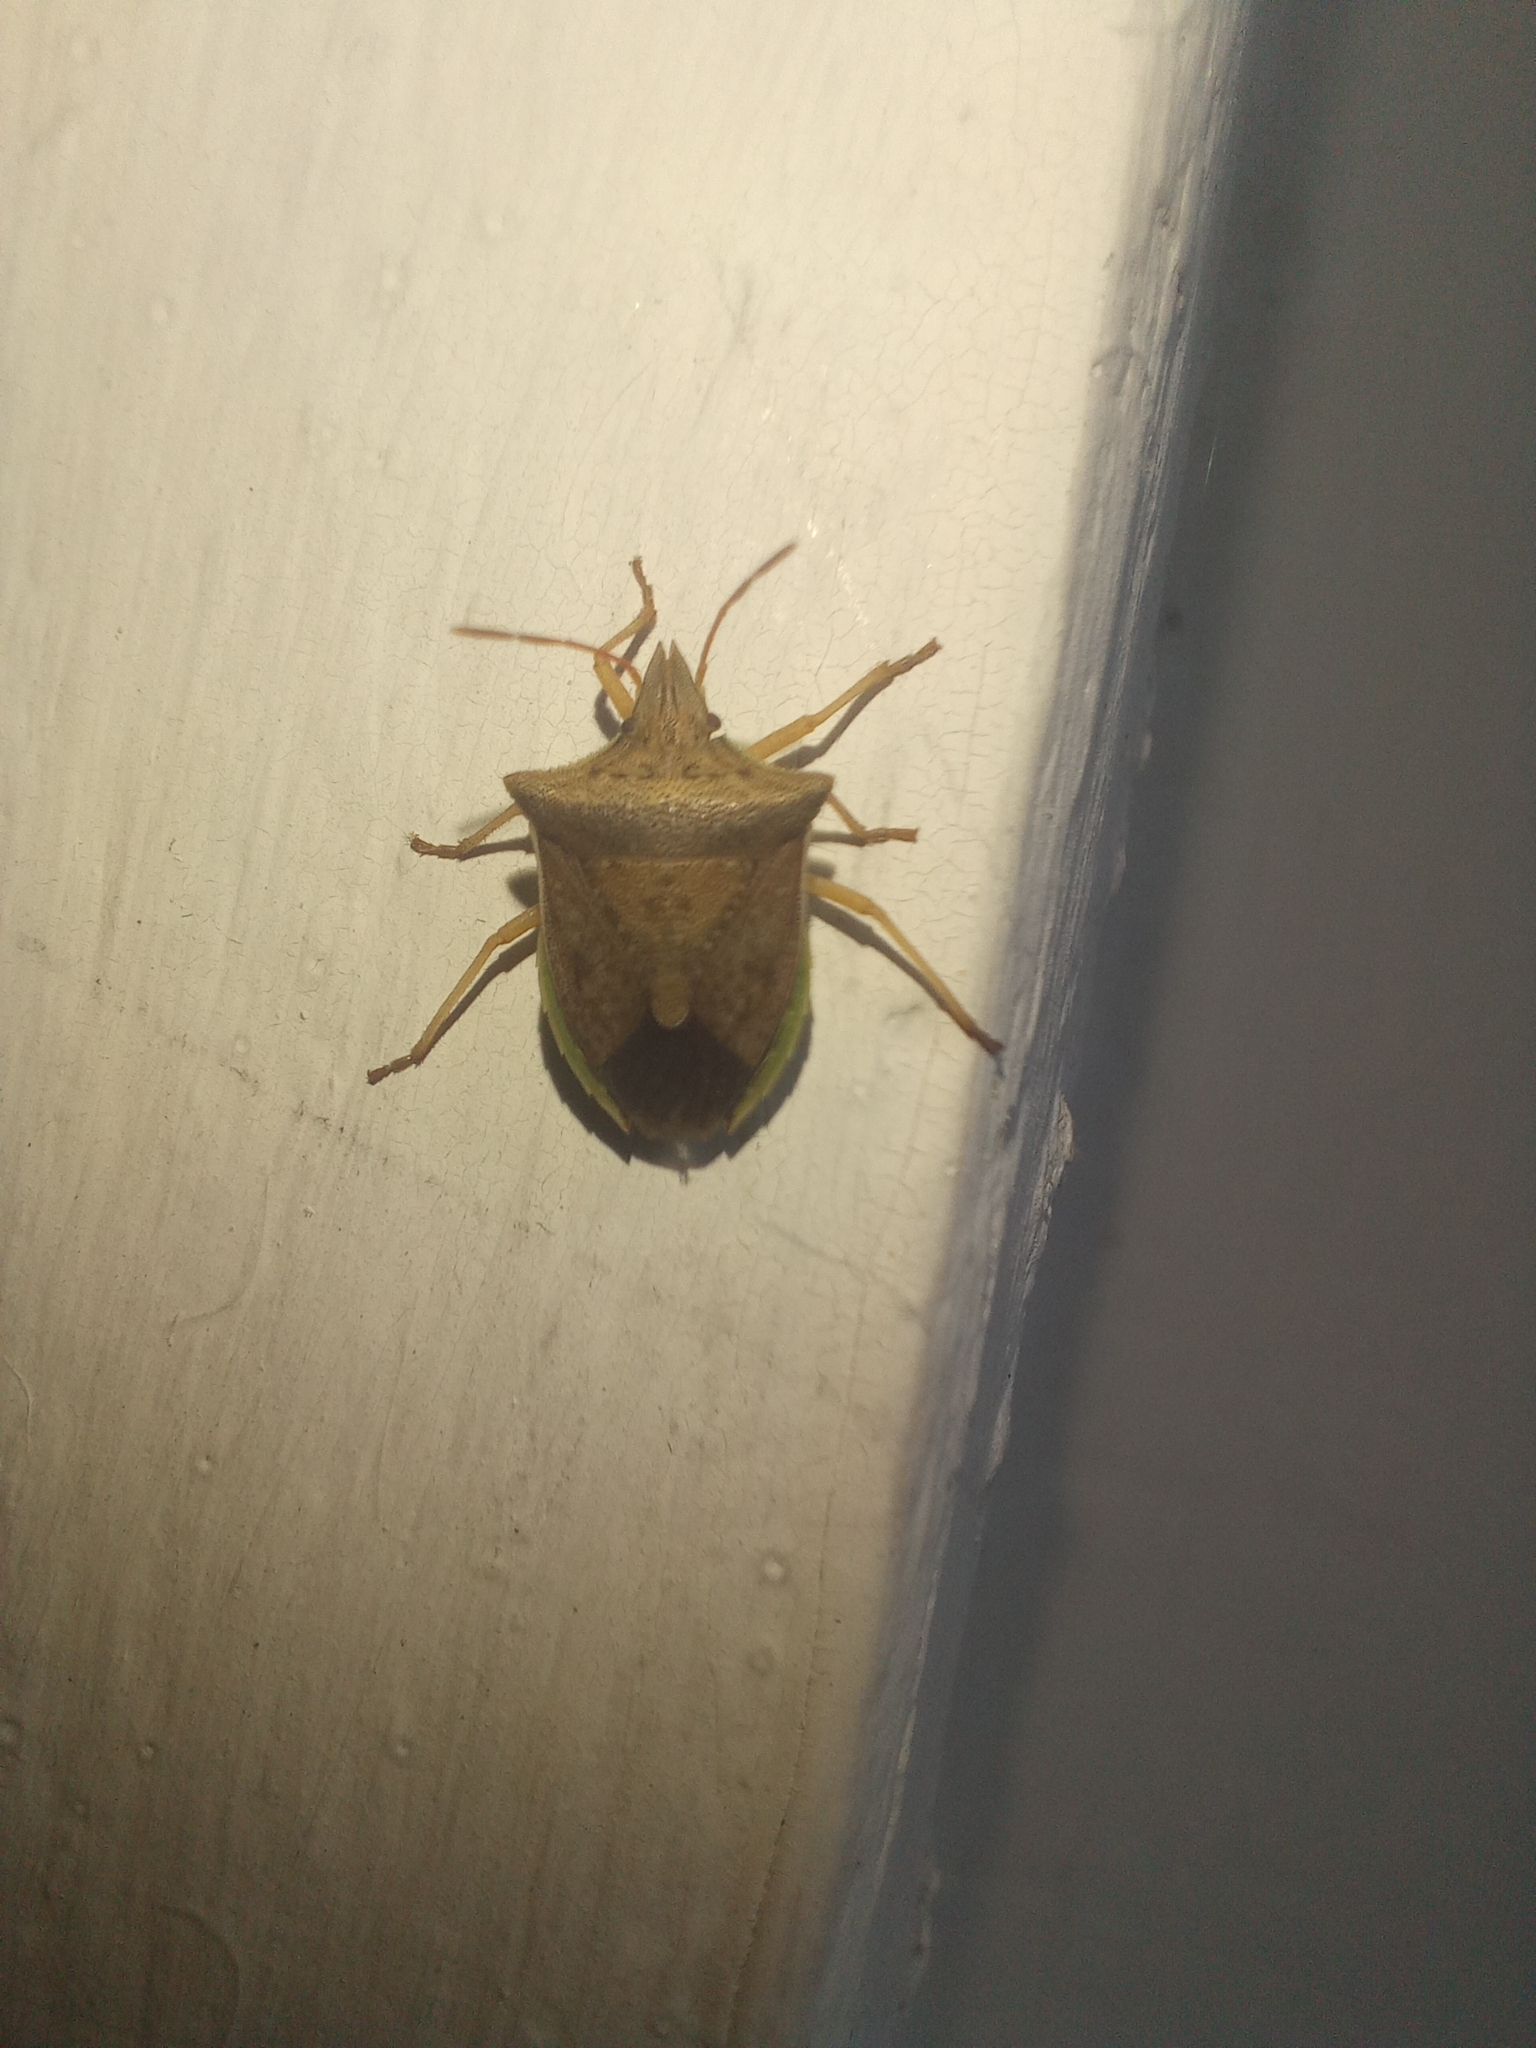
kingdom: Animalia
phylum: Arthropoda
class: Insecta
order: Hemiptera
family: Pentatomidae
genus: Diceraeus
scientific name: Diceraeus furcatus
